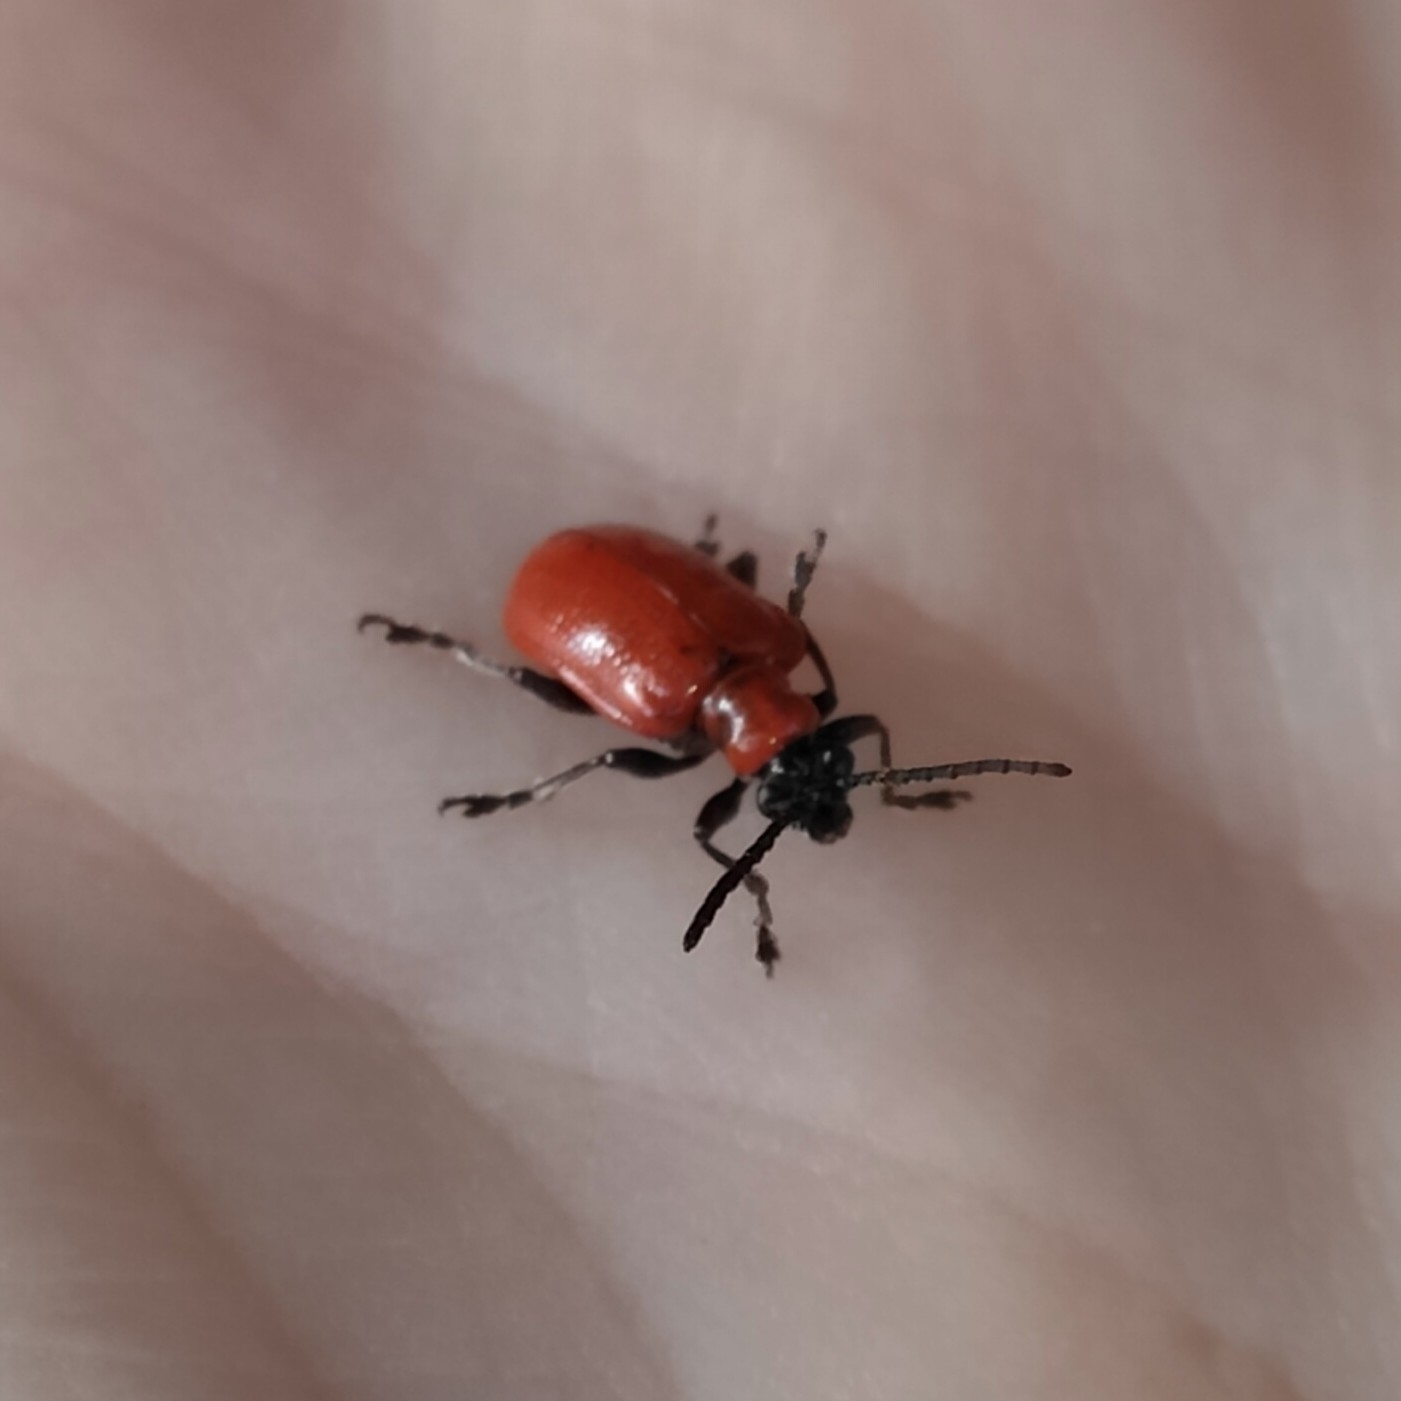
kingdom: Animalia
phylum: Arthropoda
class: Insecta
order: Coleoptera
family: Chrysomelidae
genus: Lilioceris
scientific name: Lilioceris lilii
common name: Lily beetle
